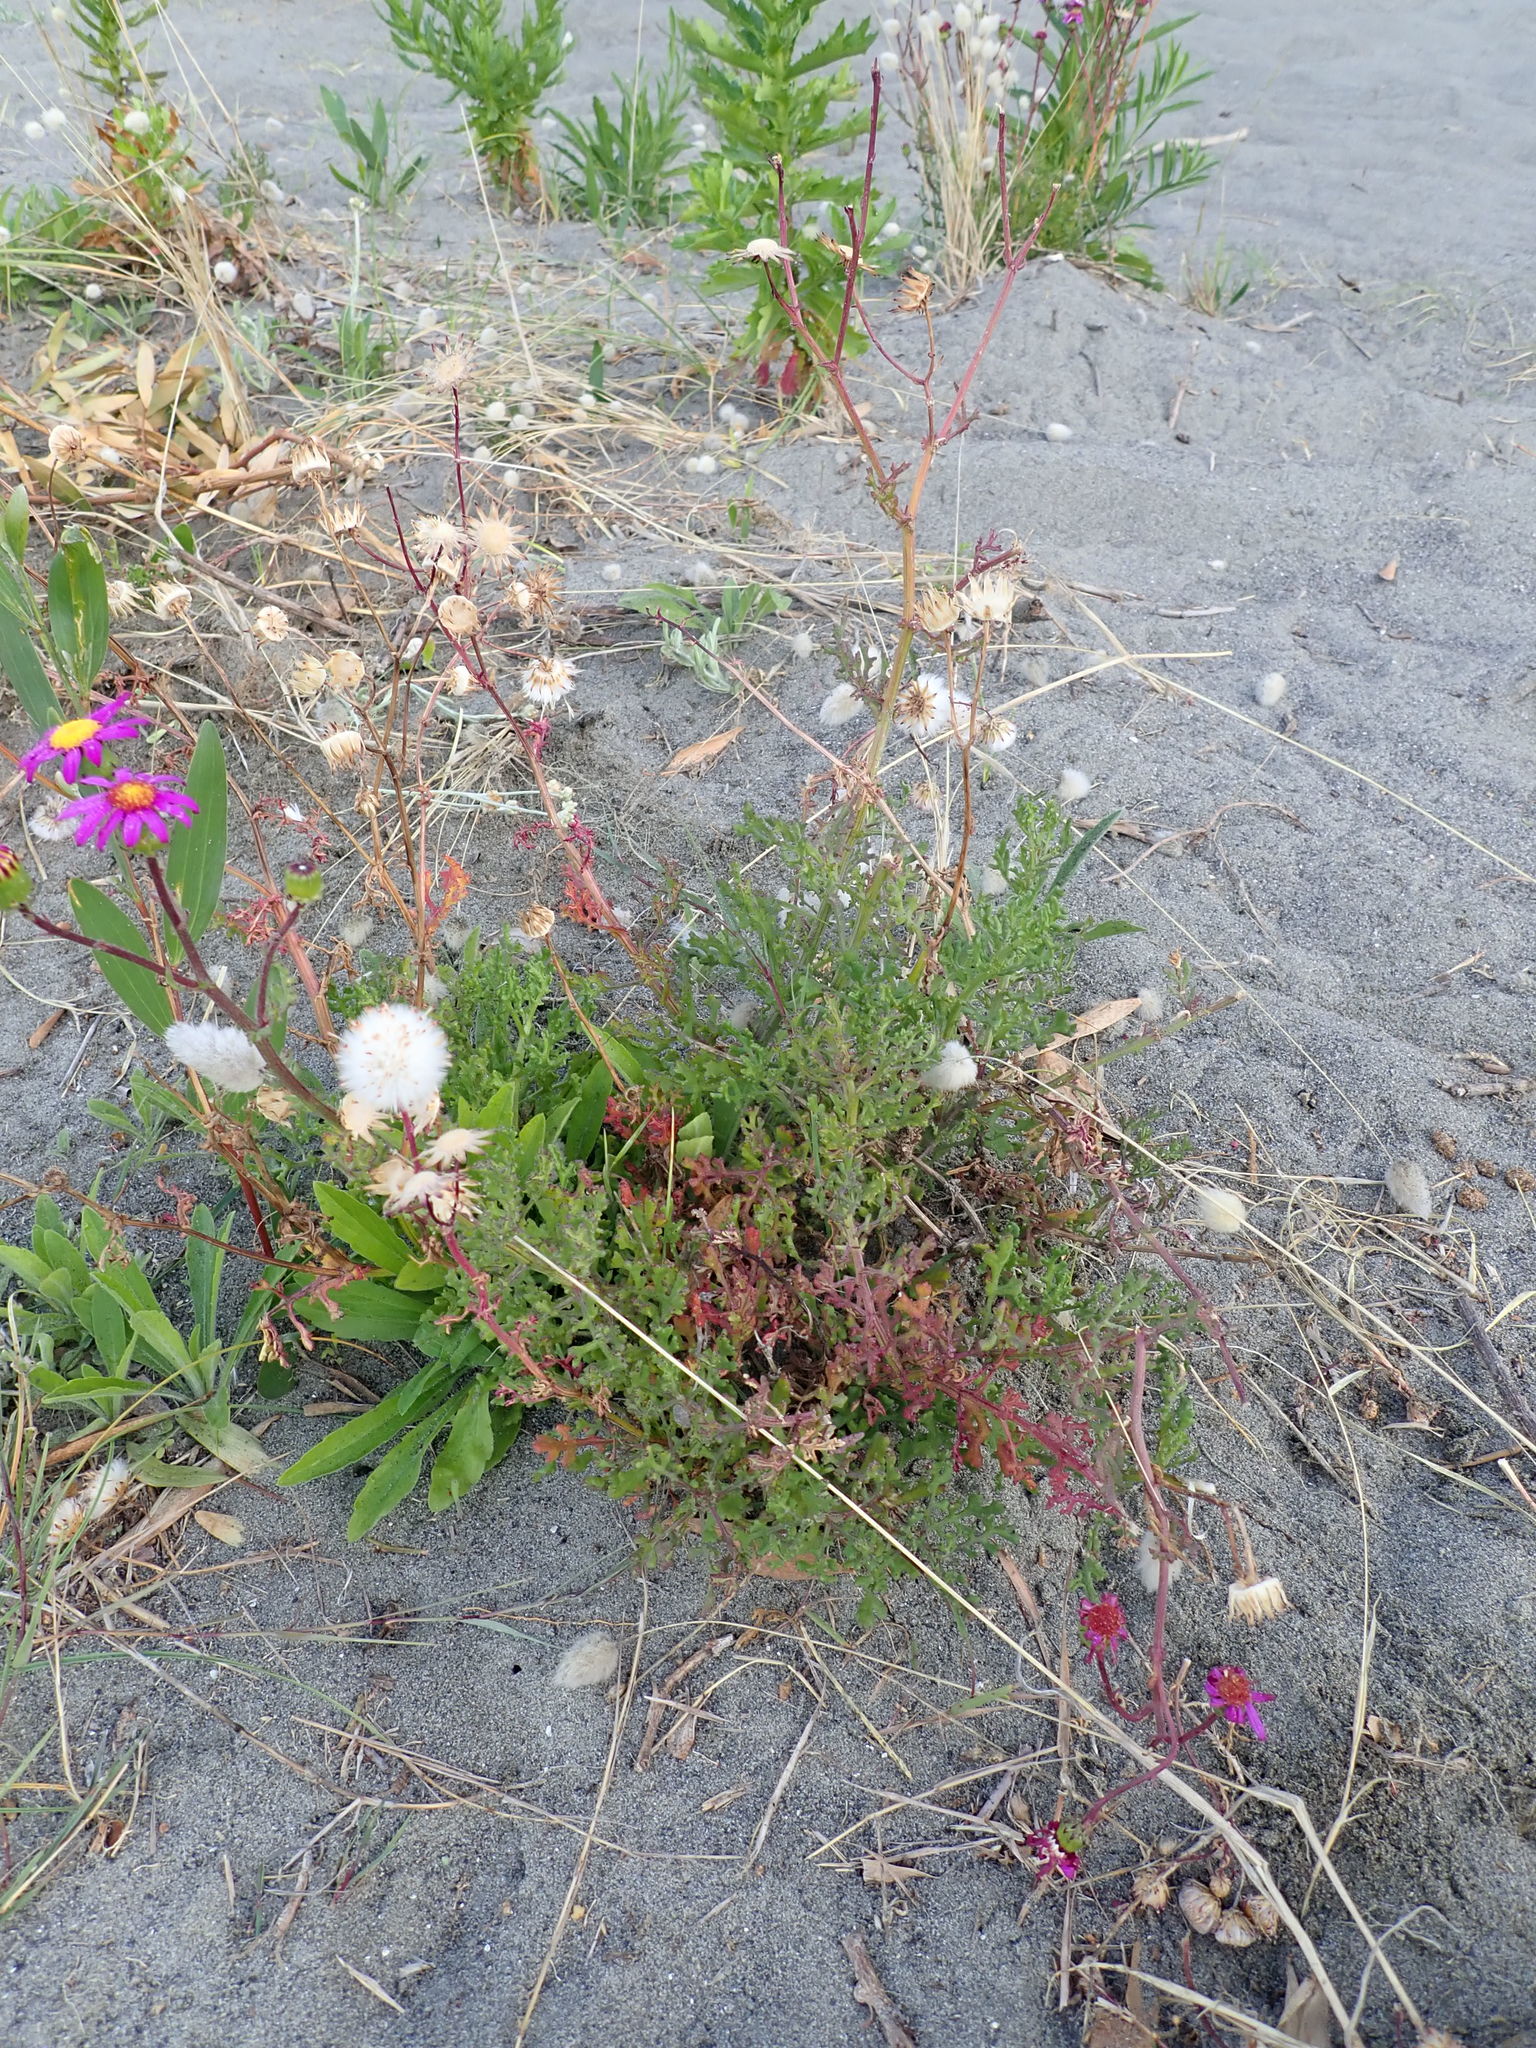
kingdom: Plantae
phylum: Tracheophyta
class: Magnoliopsida
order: Asterales
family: Asteraceae
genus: Senecio
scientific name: Senecio elegans
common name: Purple groundsel
